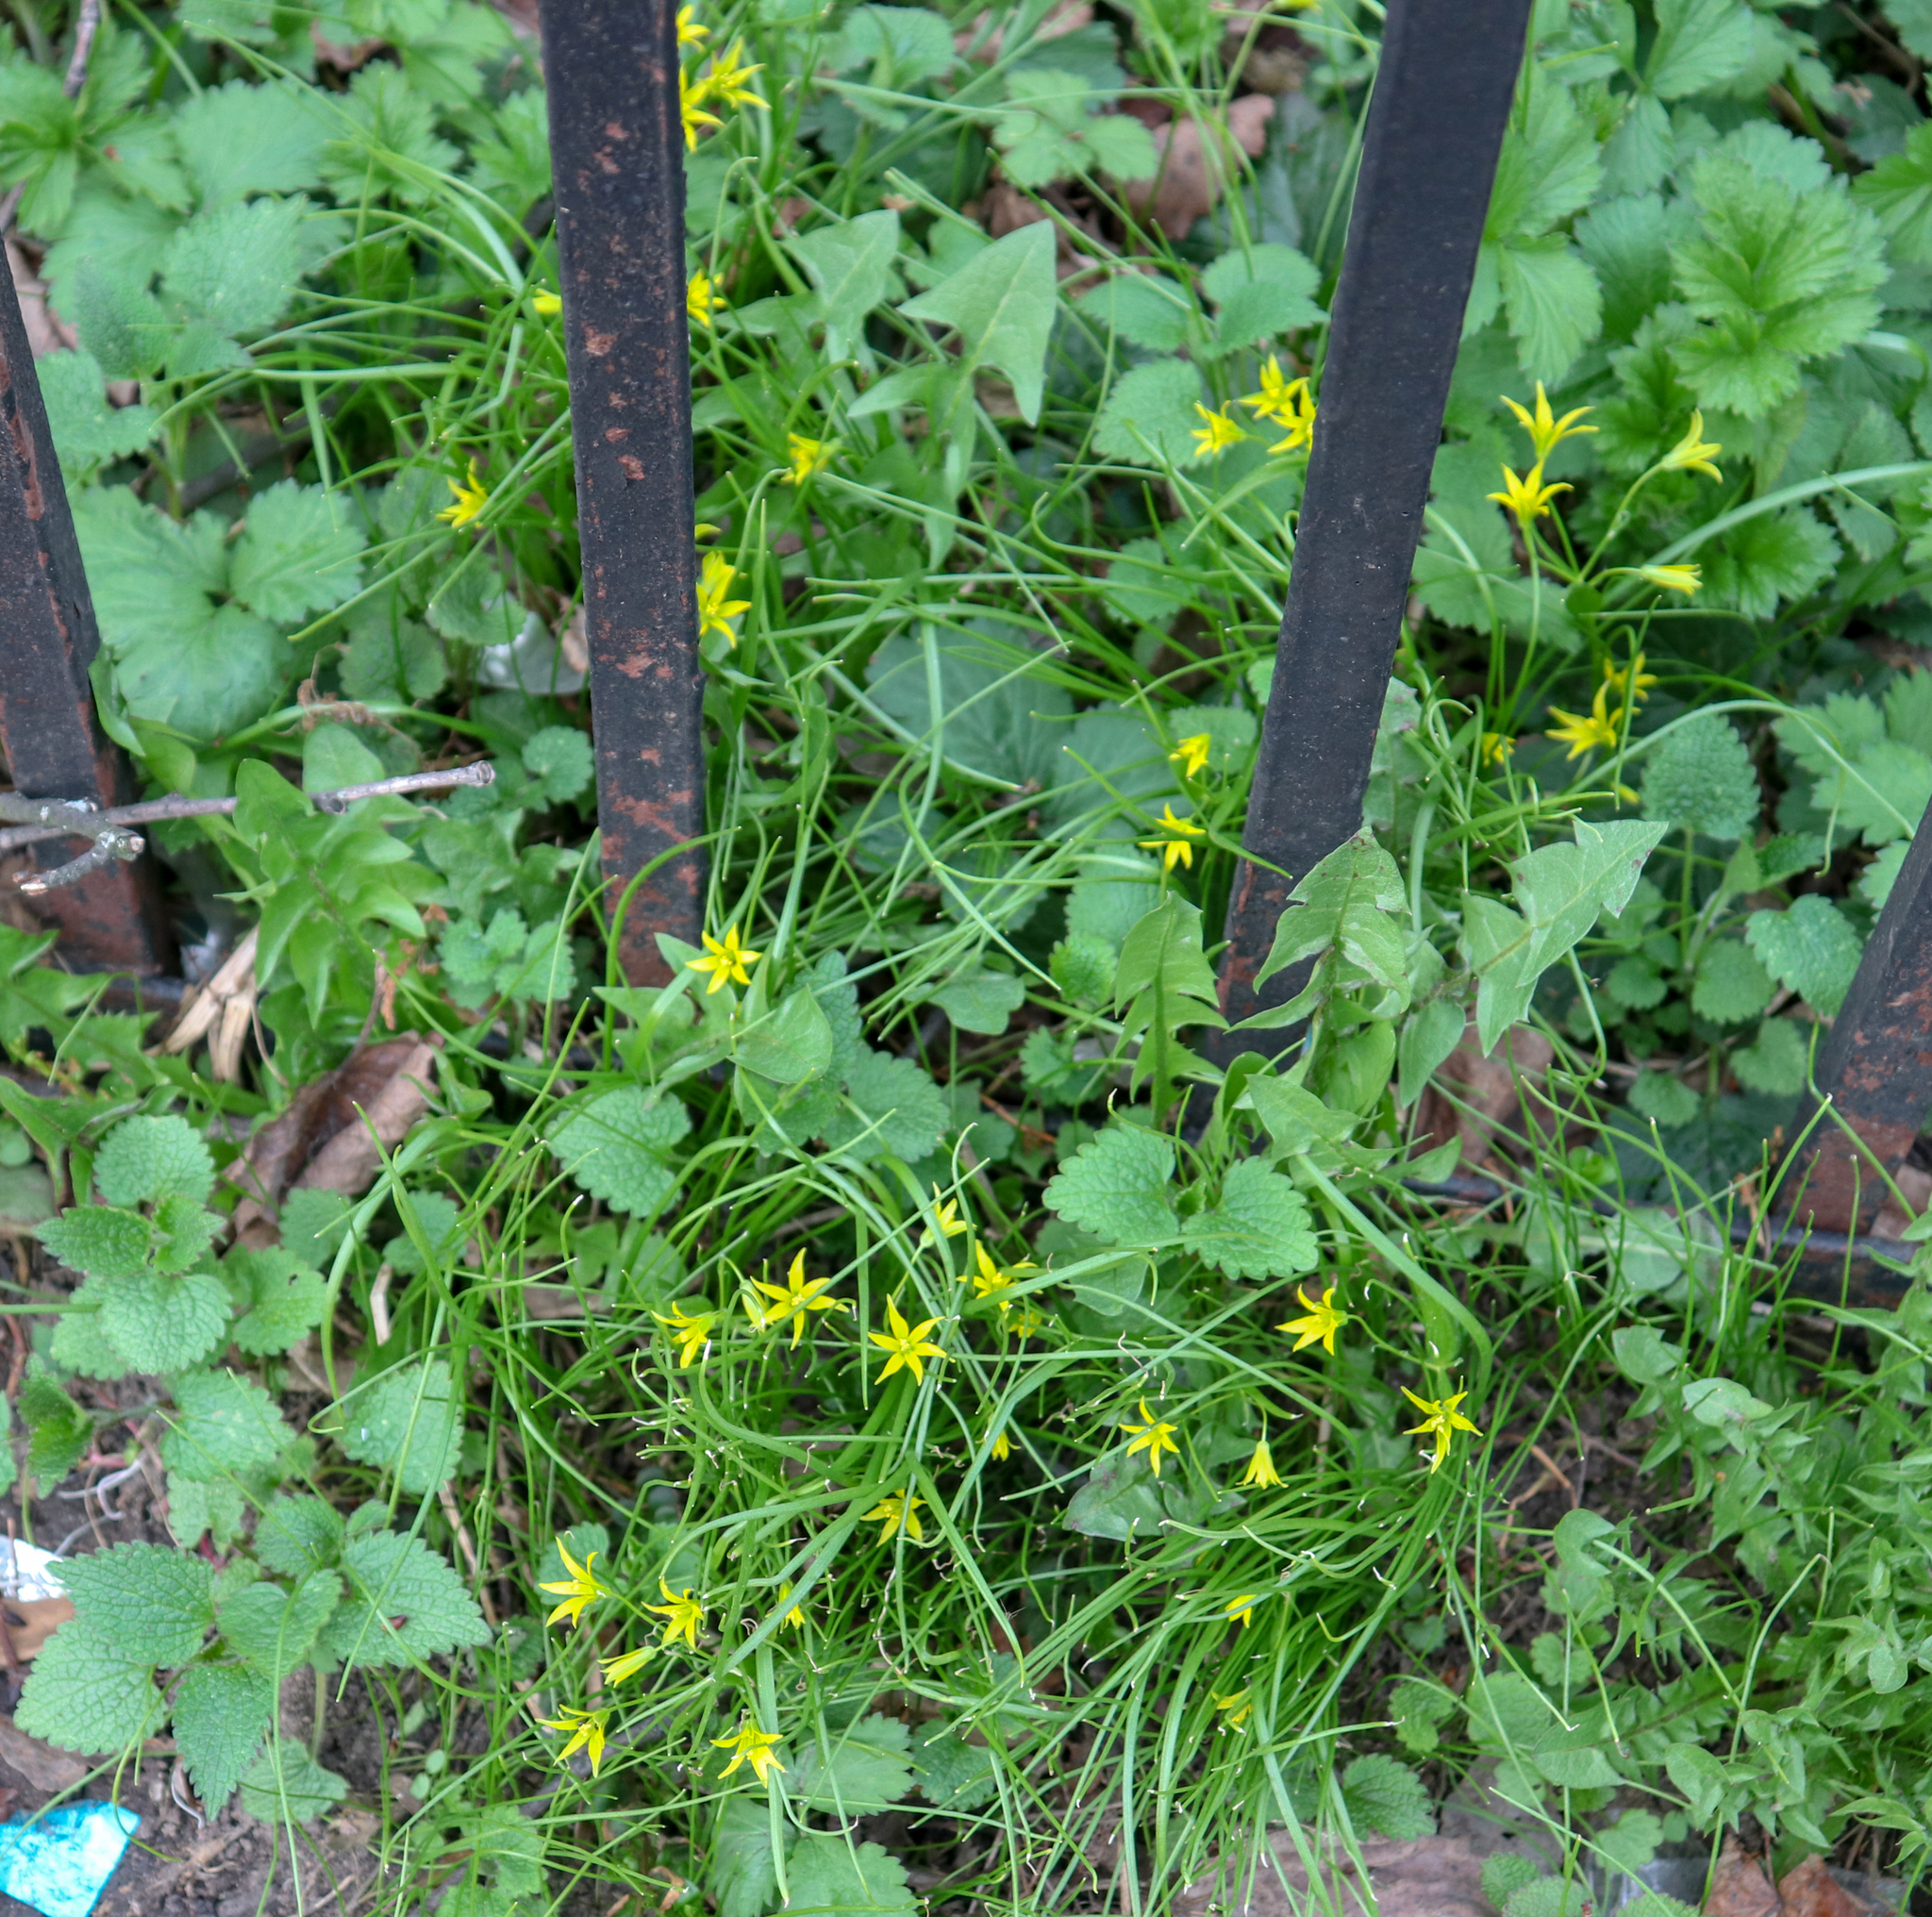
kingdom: Plantae
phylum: Tracheophyta
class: Liliopsida
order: Liliales
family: Liliaceae
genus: Gagea
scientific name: Gagea minima
